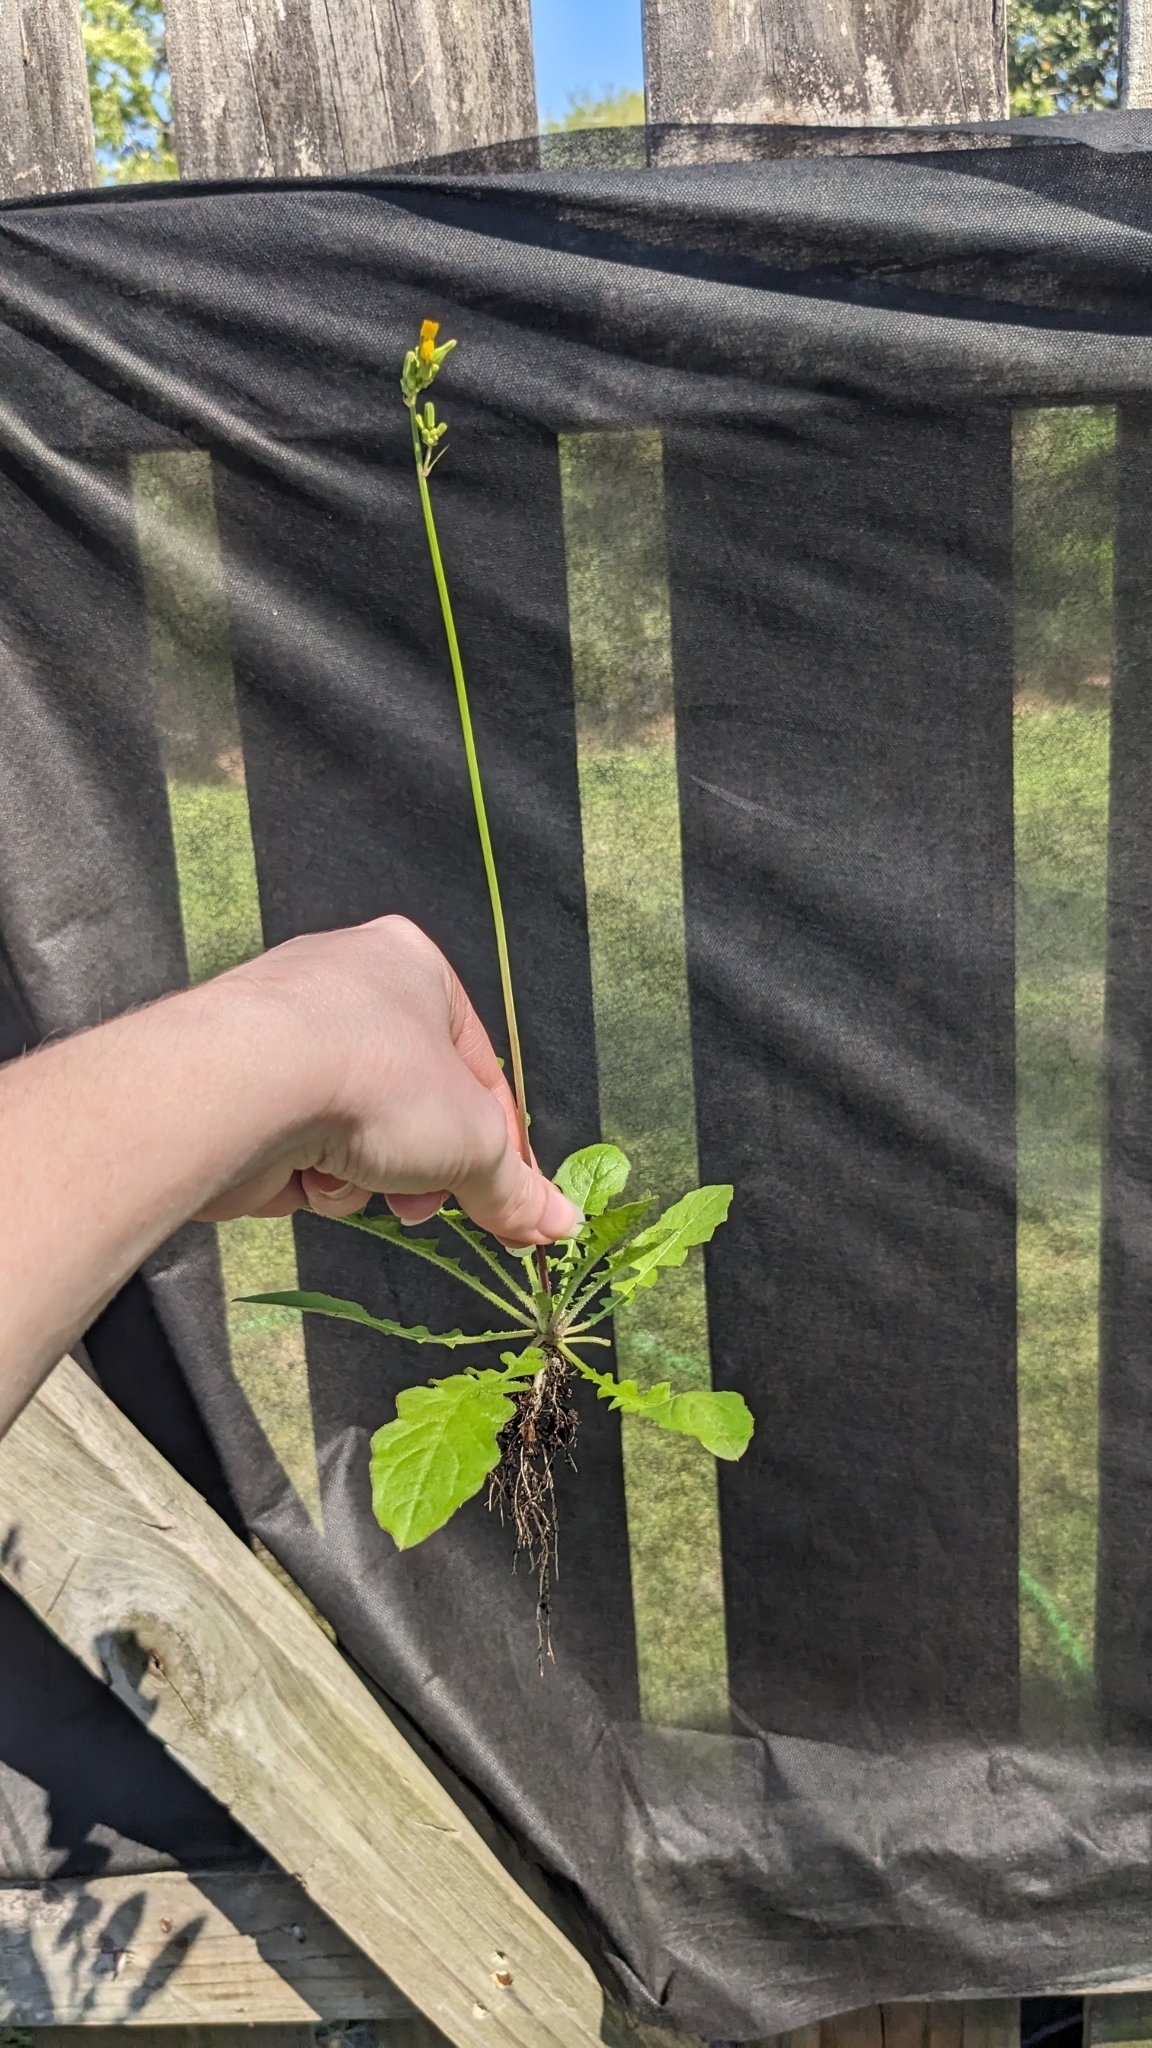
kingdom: Plantae
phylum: Tracheophyta
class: Magnoliopsida
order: Asterales
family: Asteraceae
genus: Youngia
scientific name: Youngia japonica
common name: Oriental false hawksbeard
